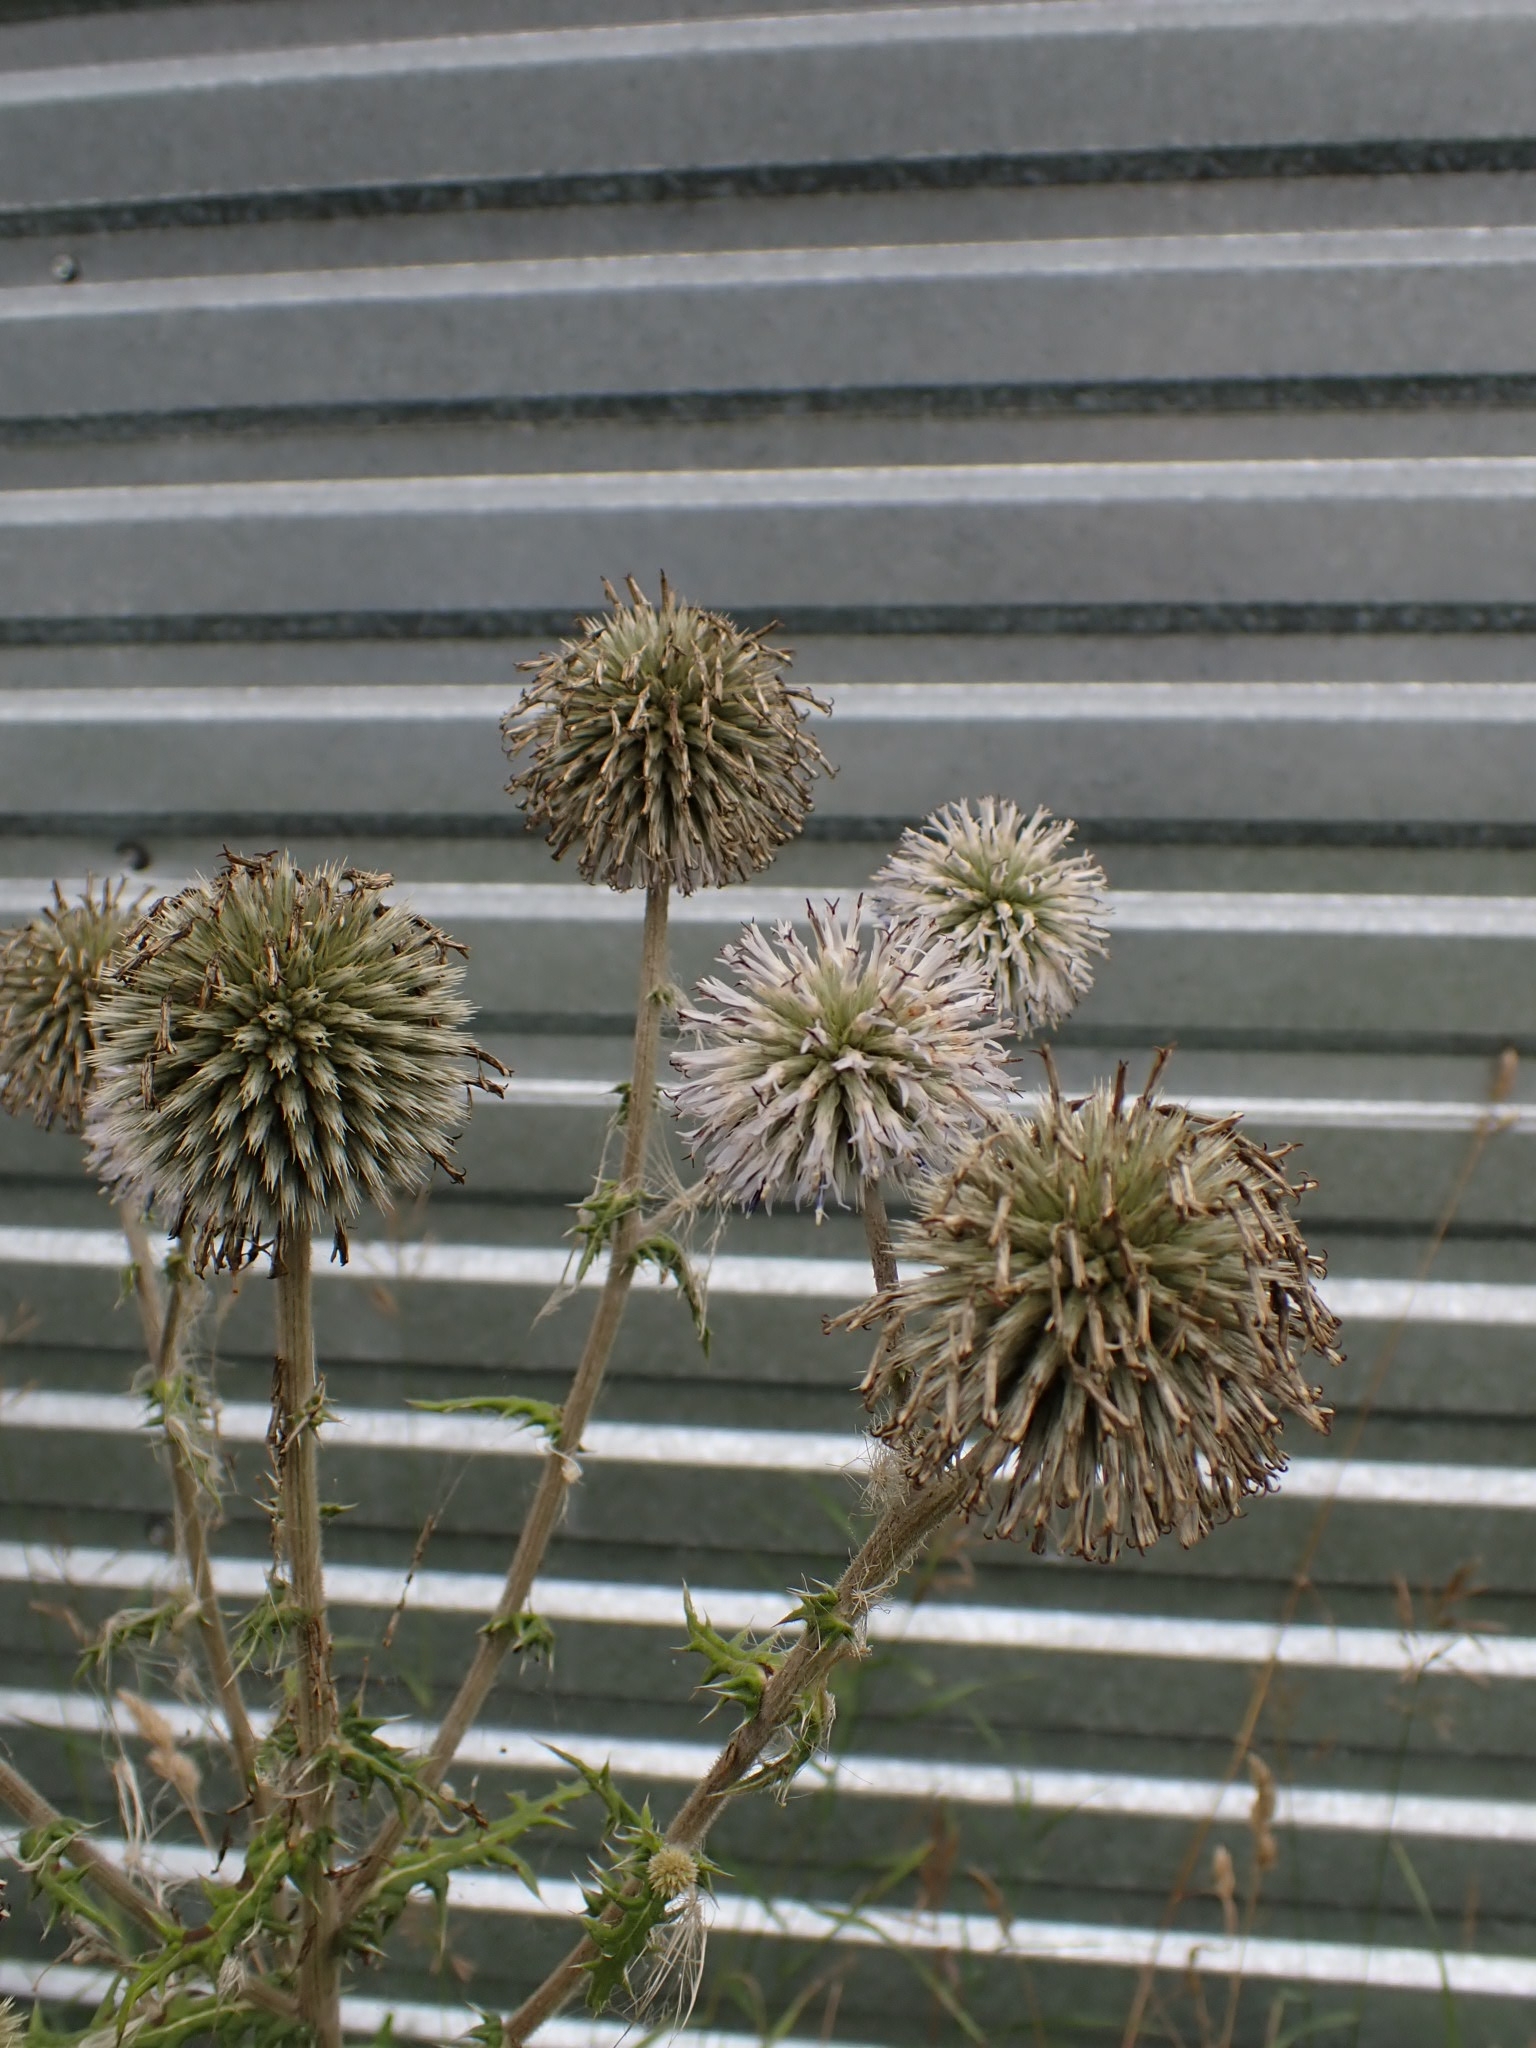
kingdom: Plantae
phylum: Tracheophyta
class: Magnoliopsida
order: Asterales
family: Asteraceae
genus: Echinops
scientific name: Echinops sphaerocephalus
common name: Glandular globe-thistle
